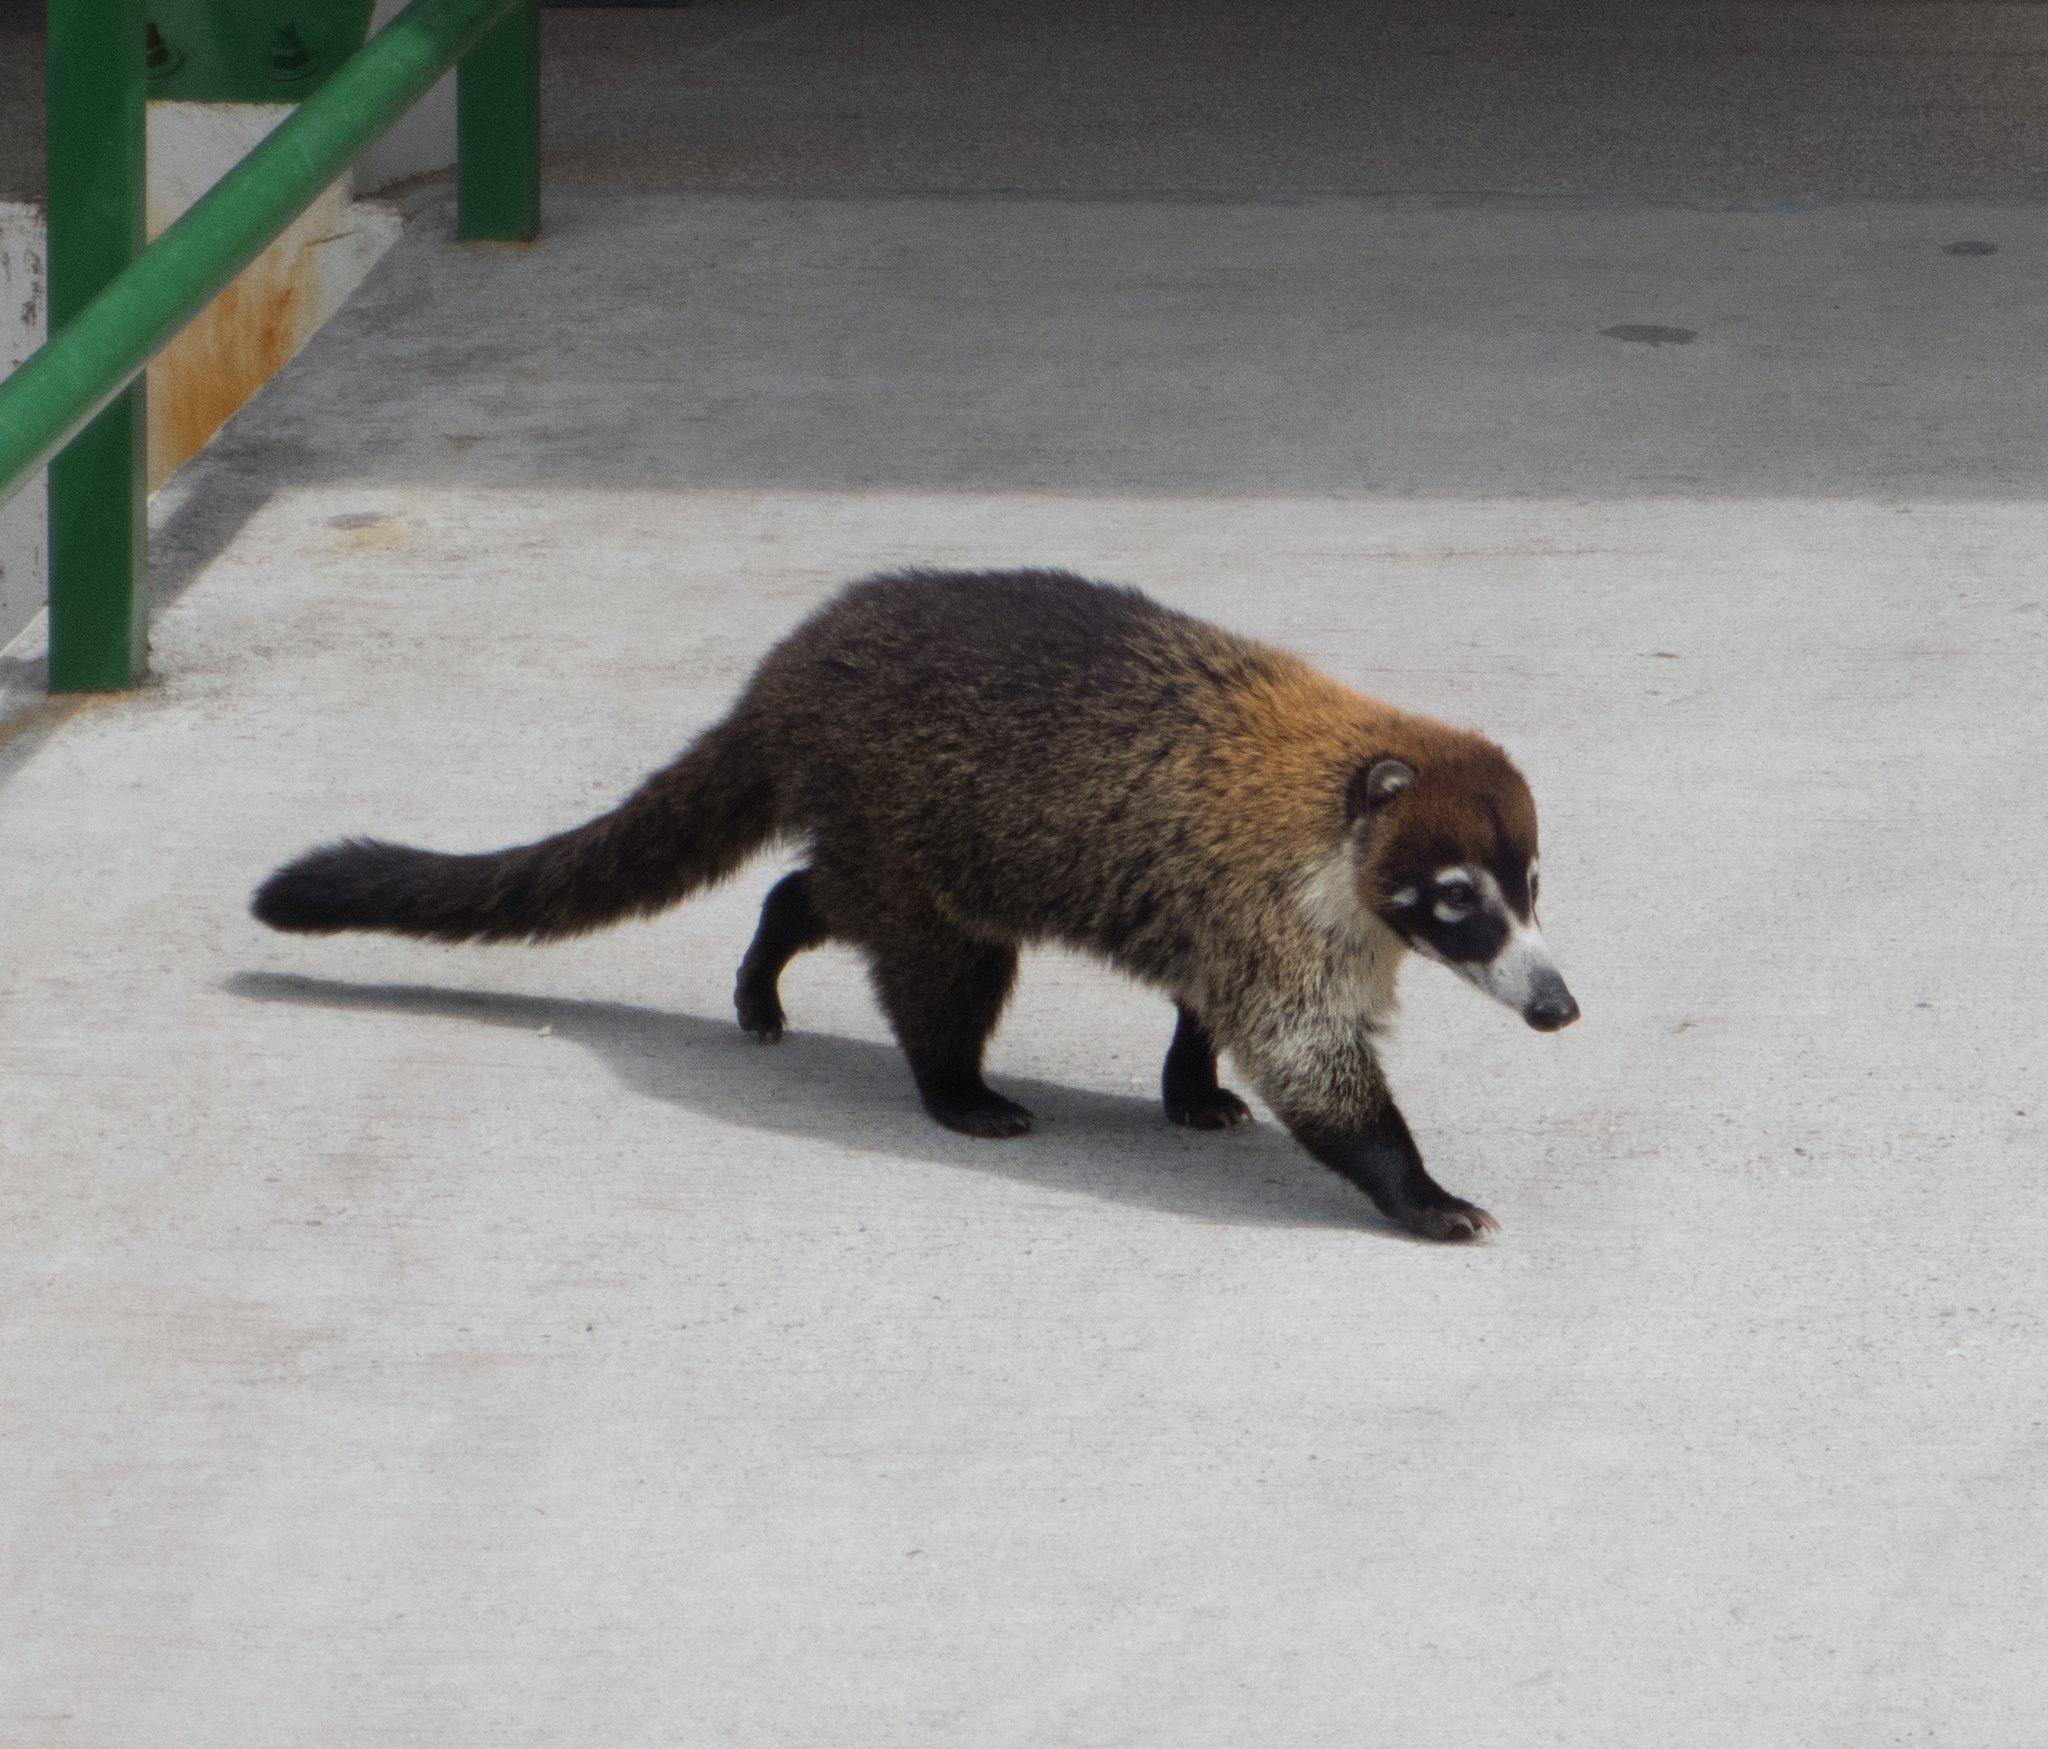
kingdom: Animalia
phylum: Chordata
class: Mammalia
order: Carnivora
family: Procyonidae
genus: Nasua
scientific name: Nasua narica
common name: White-nosed coati
